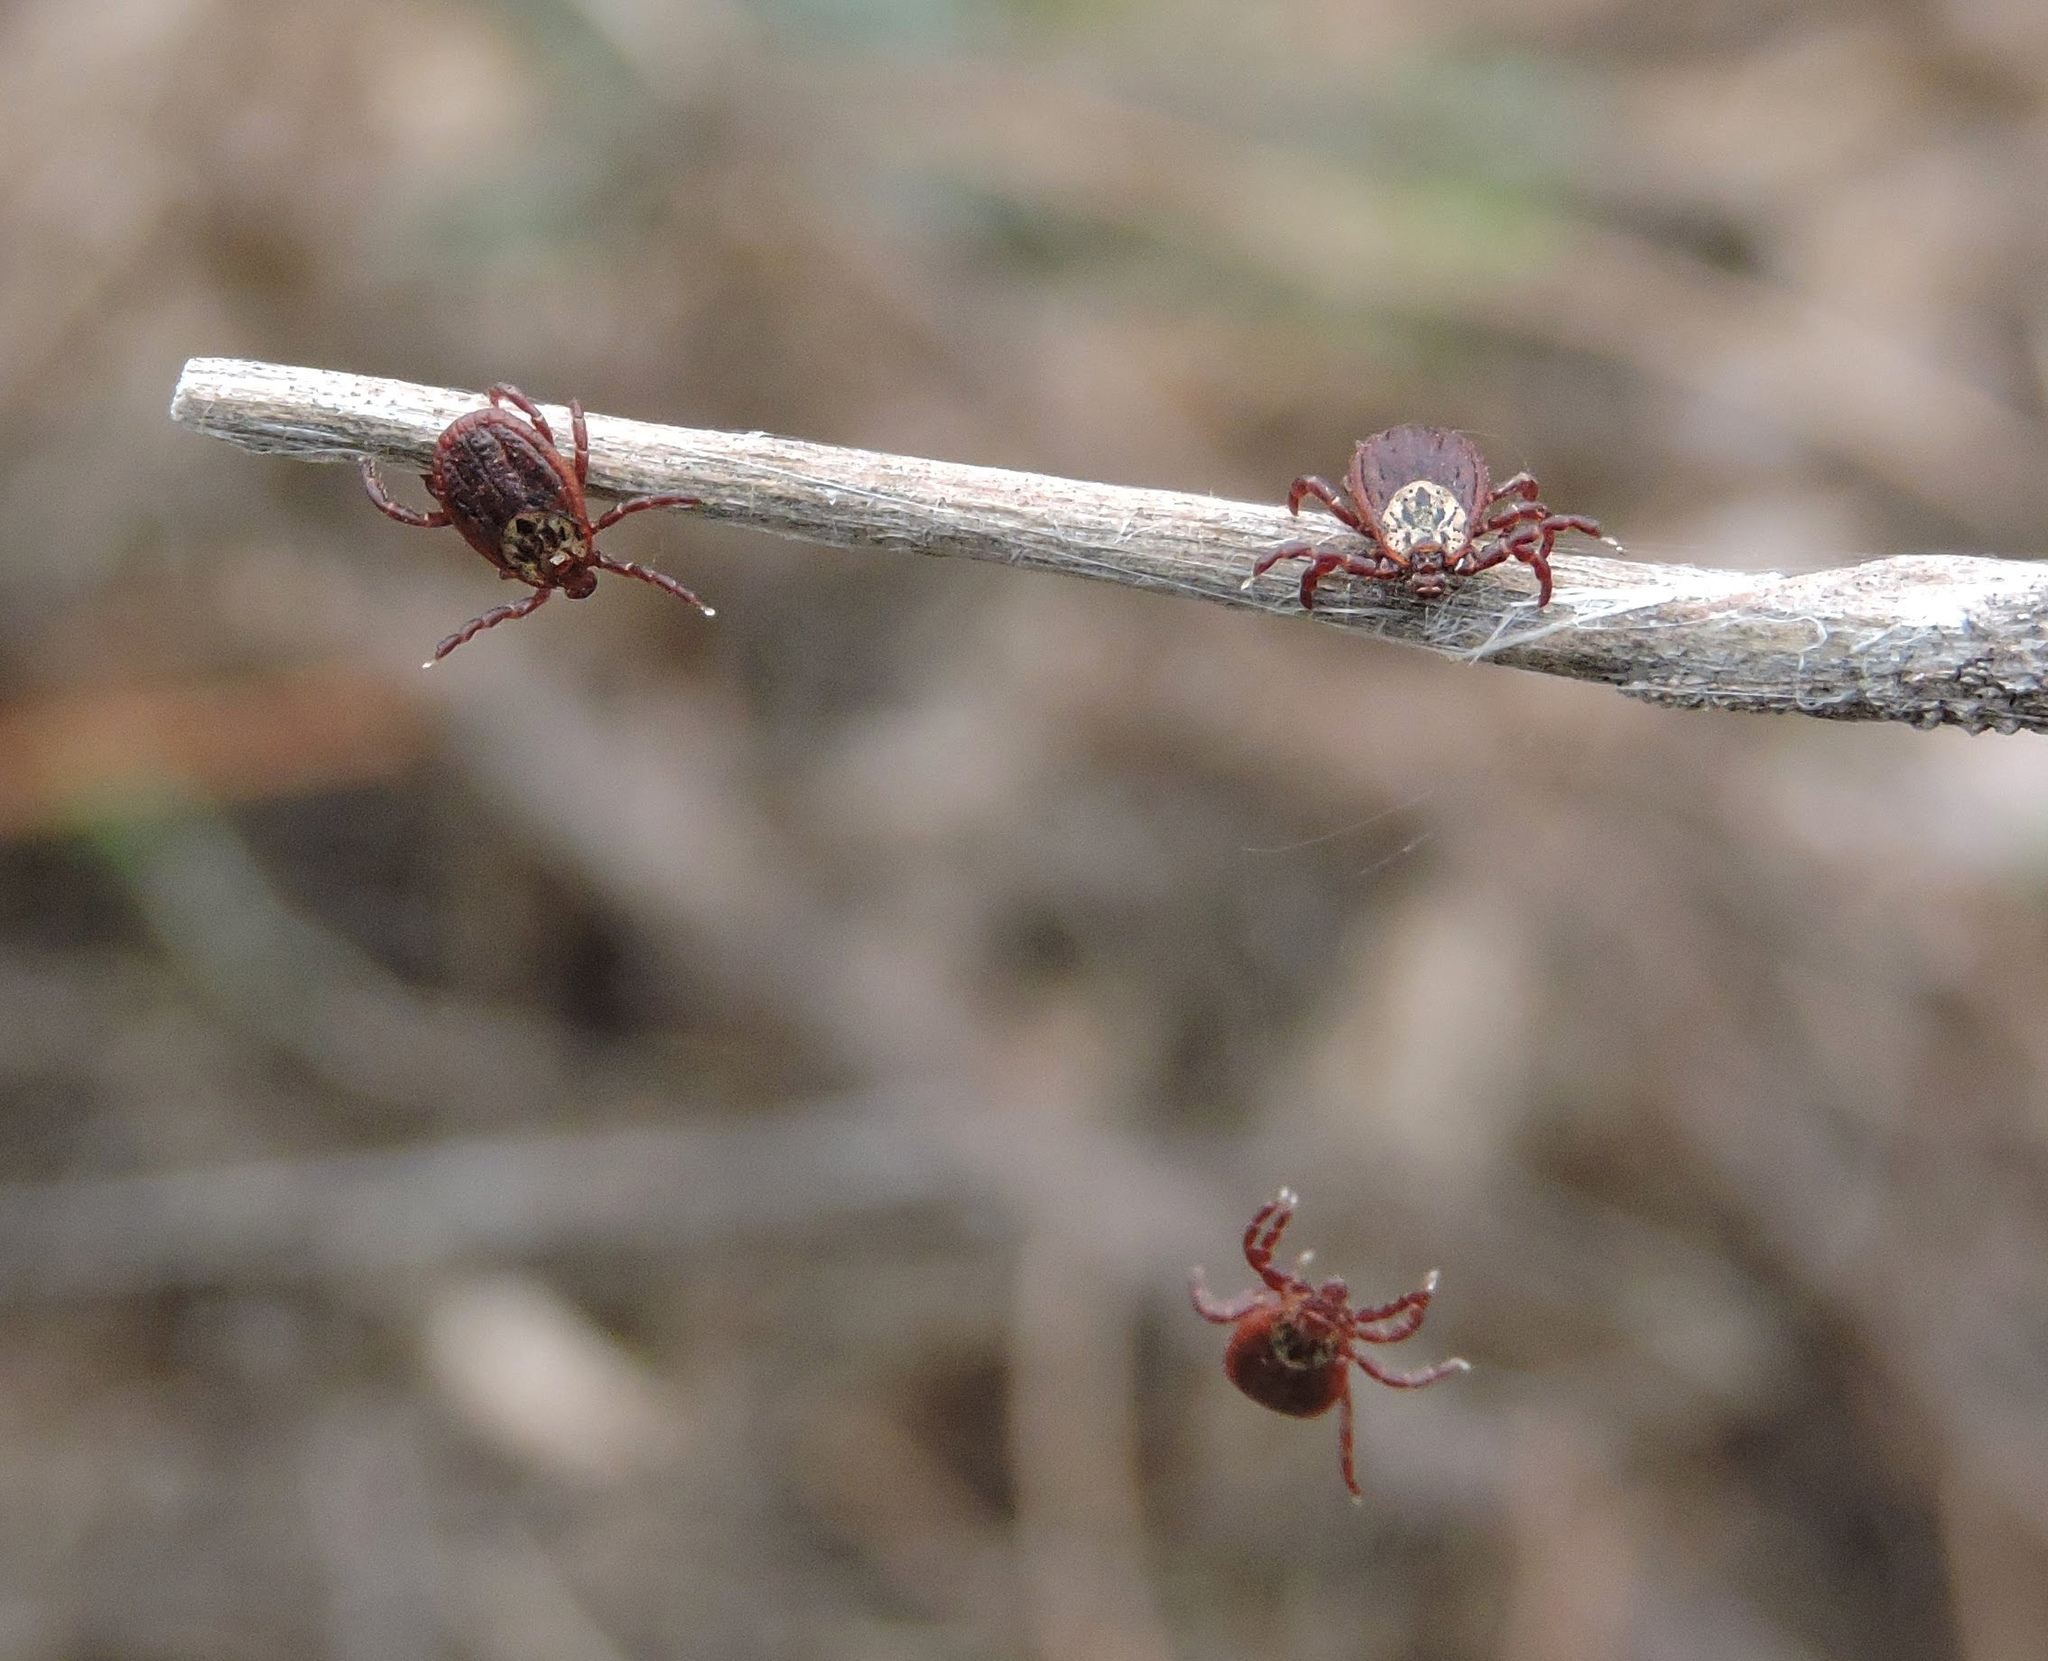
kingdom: Animalia
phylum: Arthropoda
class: Arachnida
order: Ixodida
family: Ixodidae
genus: Dermacentor
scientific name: Dermacentor reticulatus
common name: Ornate cow tick
